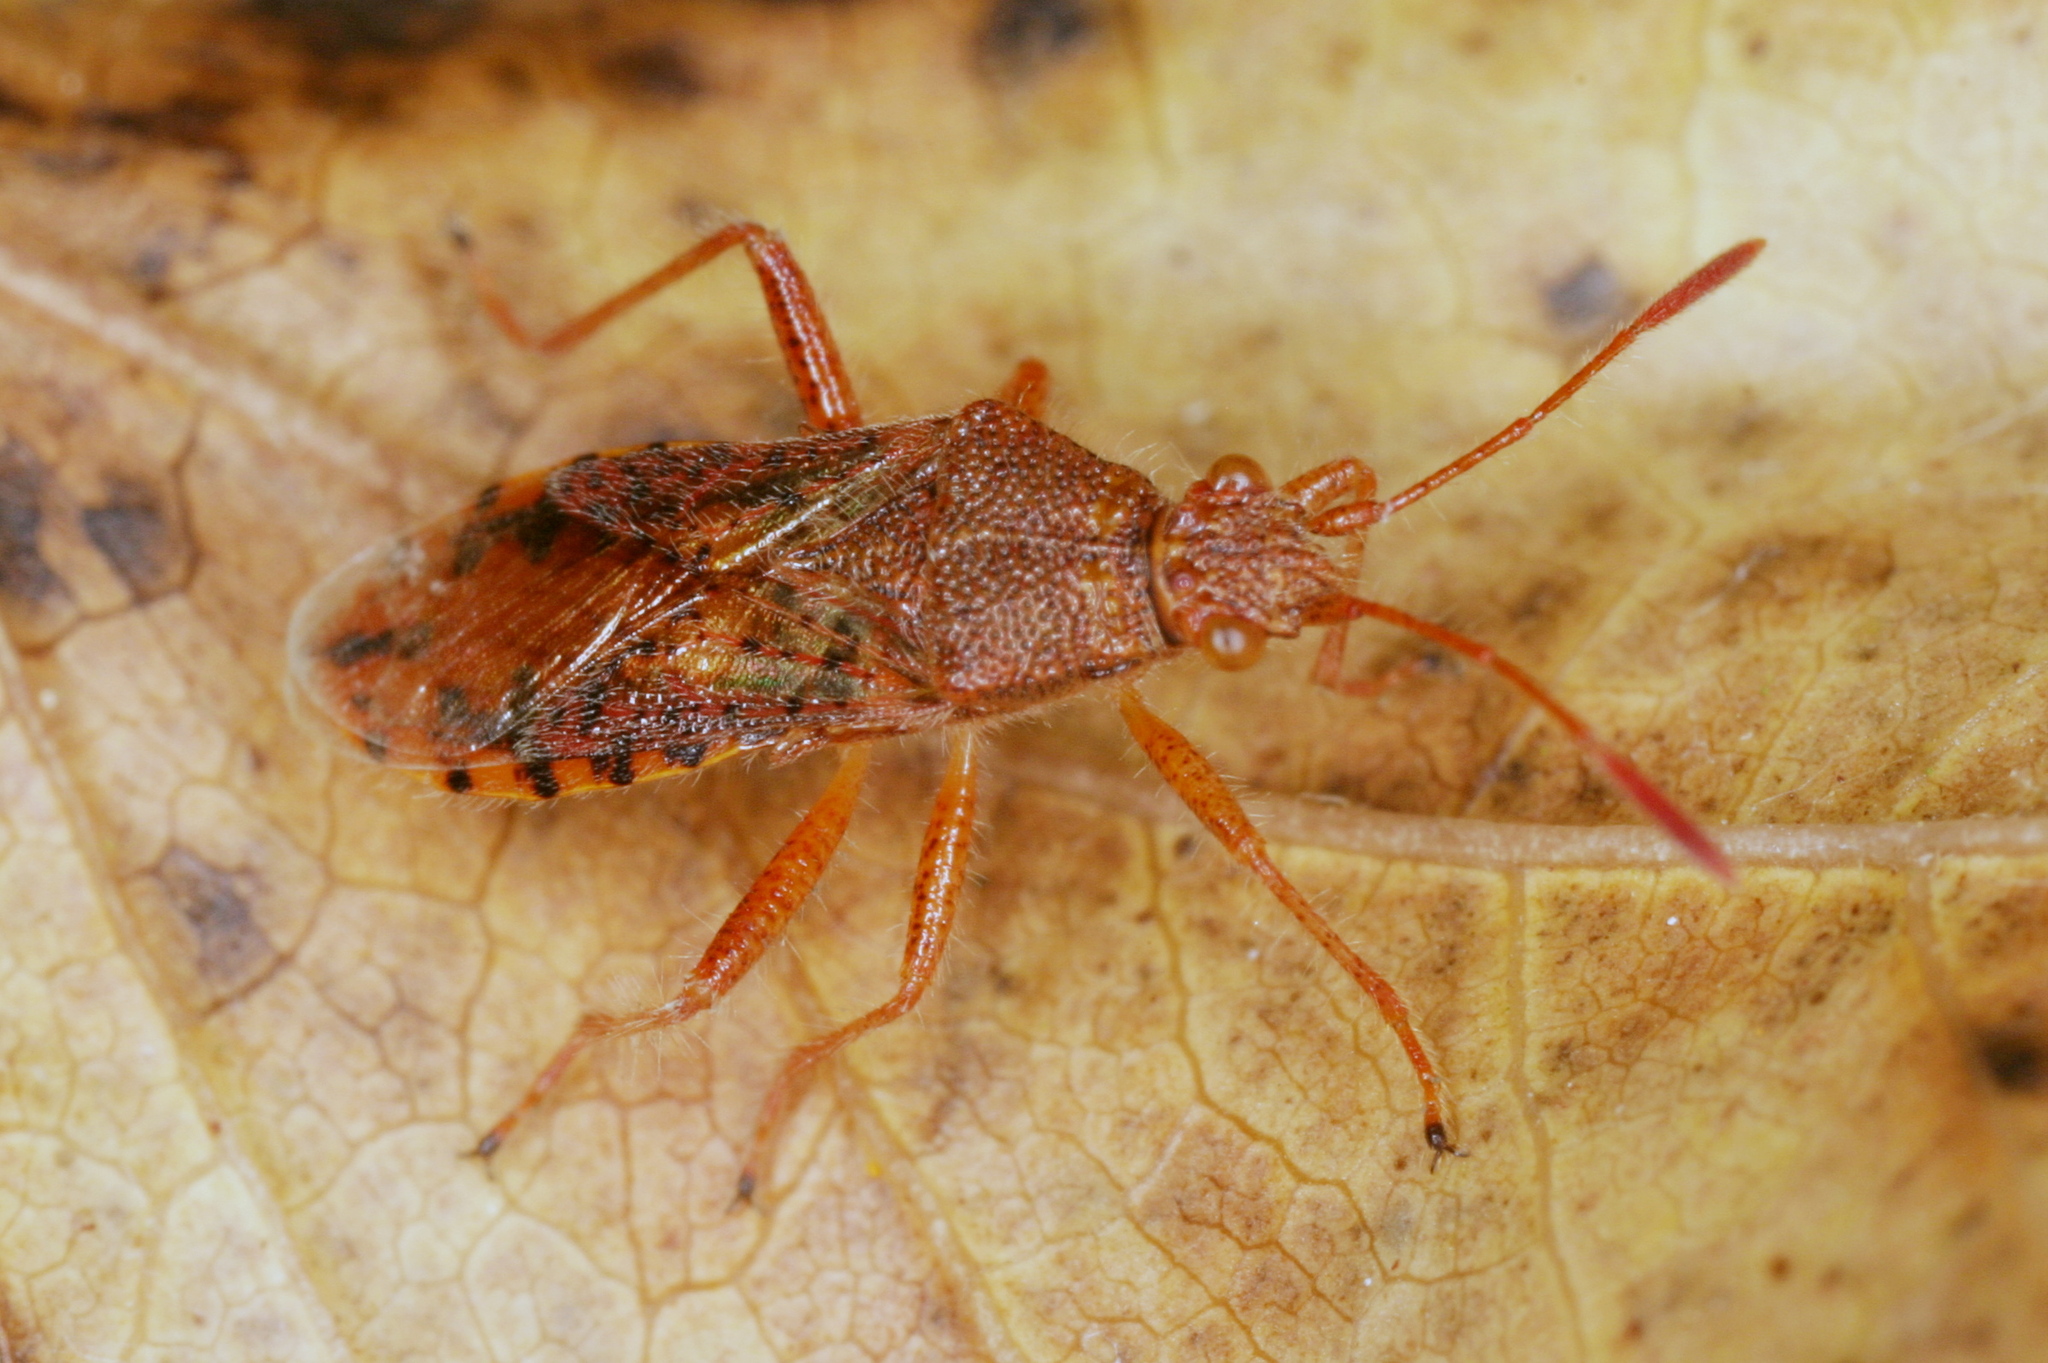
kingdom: Animalia
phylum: Arthropoda
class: Insecta
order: Hemiptera
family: Rhopalidae
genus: Rhopalus
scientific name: Rhopalus maculatus
